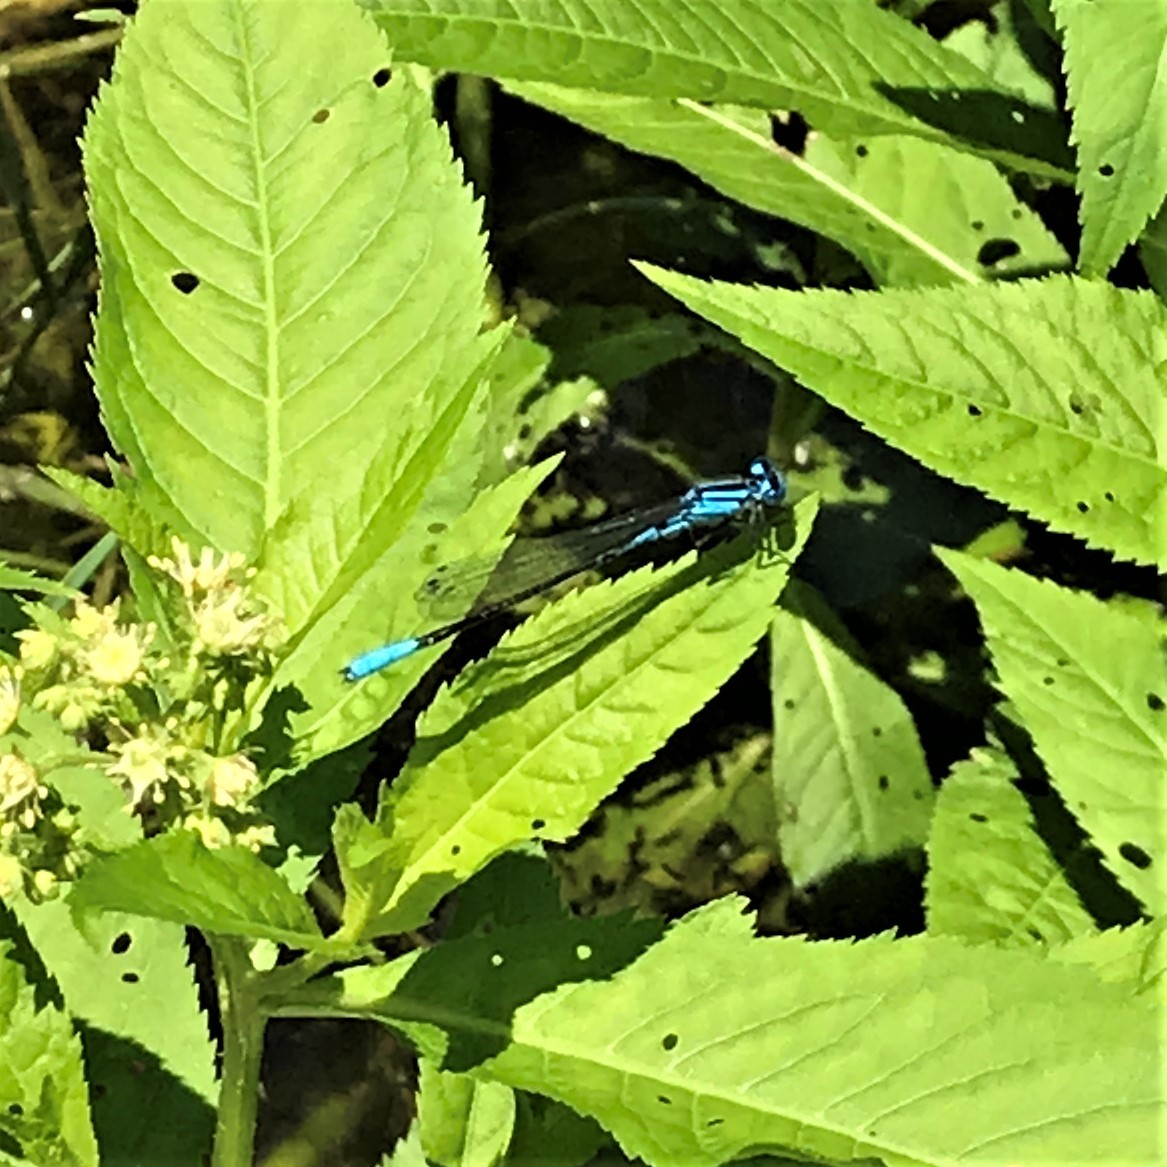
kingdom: Animalia
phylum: Arthropoda
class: Insecta
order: Odonata
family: Coenagrionidae
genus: Enallagma
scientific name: Enallagma aspersum
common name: Azure bluet
